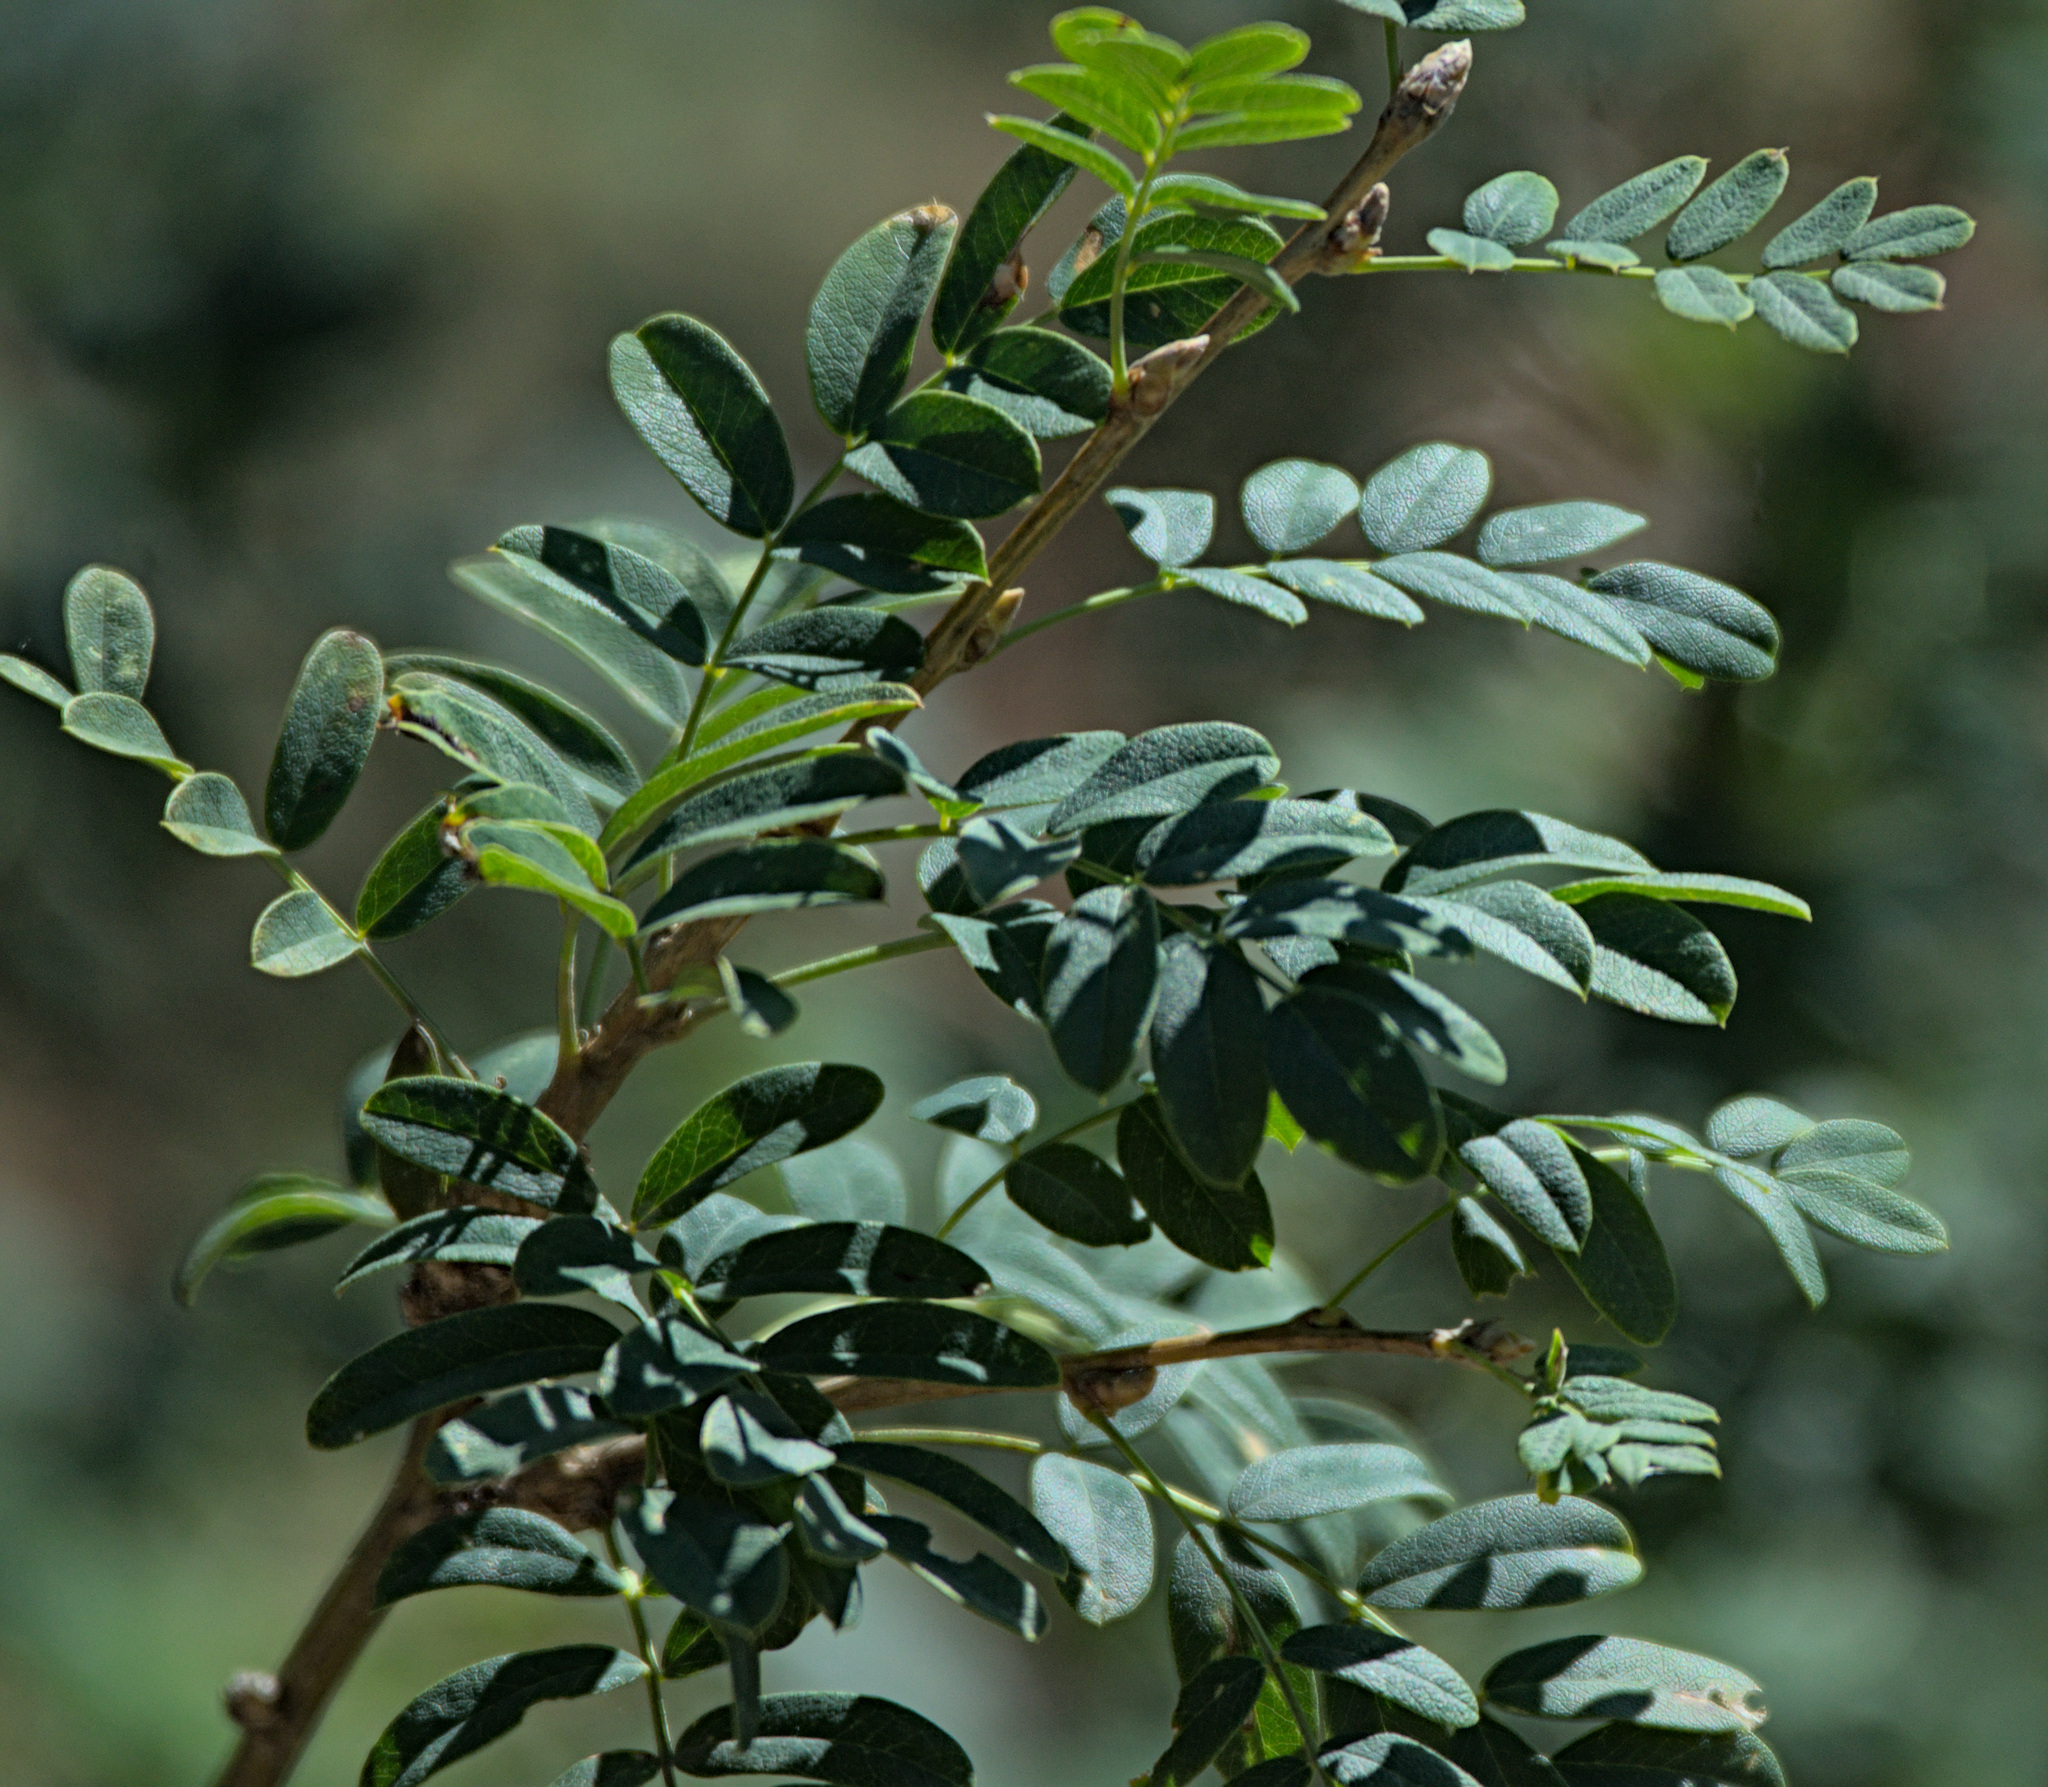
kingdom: Plantae
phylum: Tracheophyta
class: Magnoliopsida
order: Fabales
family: Fabaceae
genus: Caragana
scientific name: Caragana arborescens
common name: Siberian peashrub
